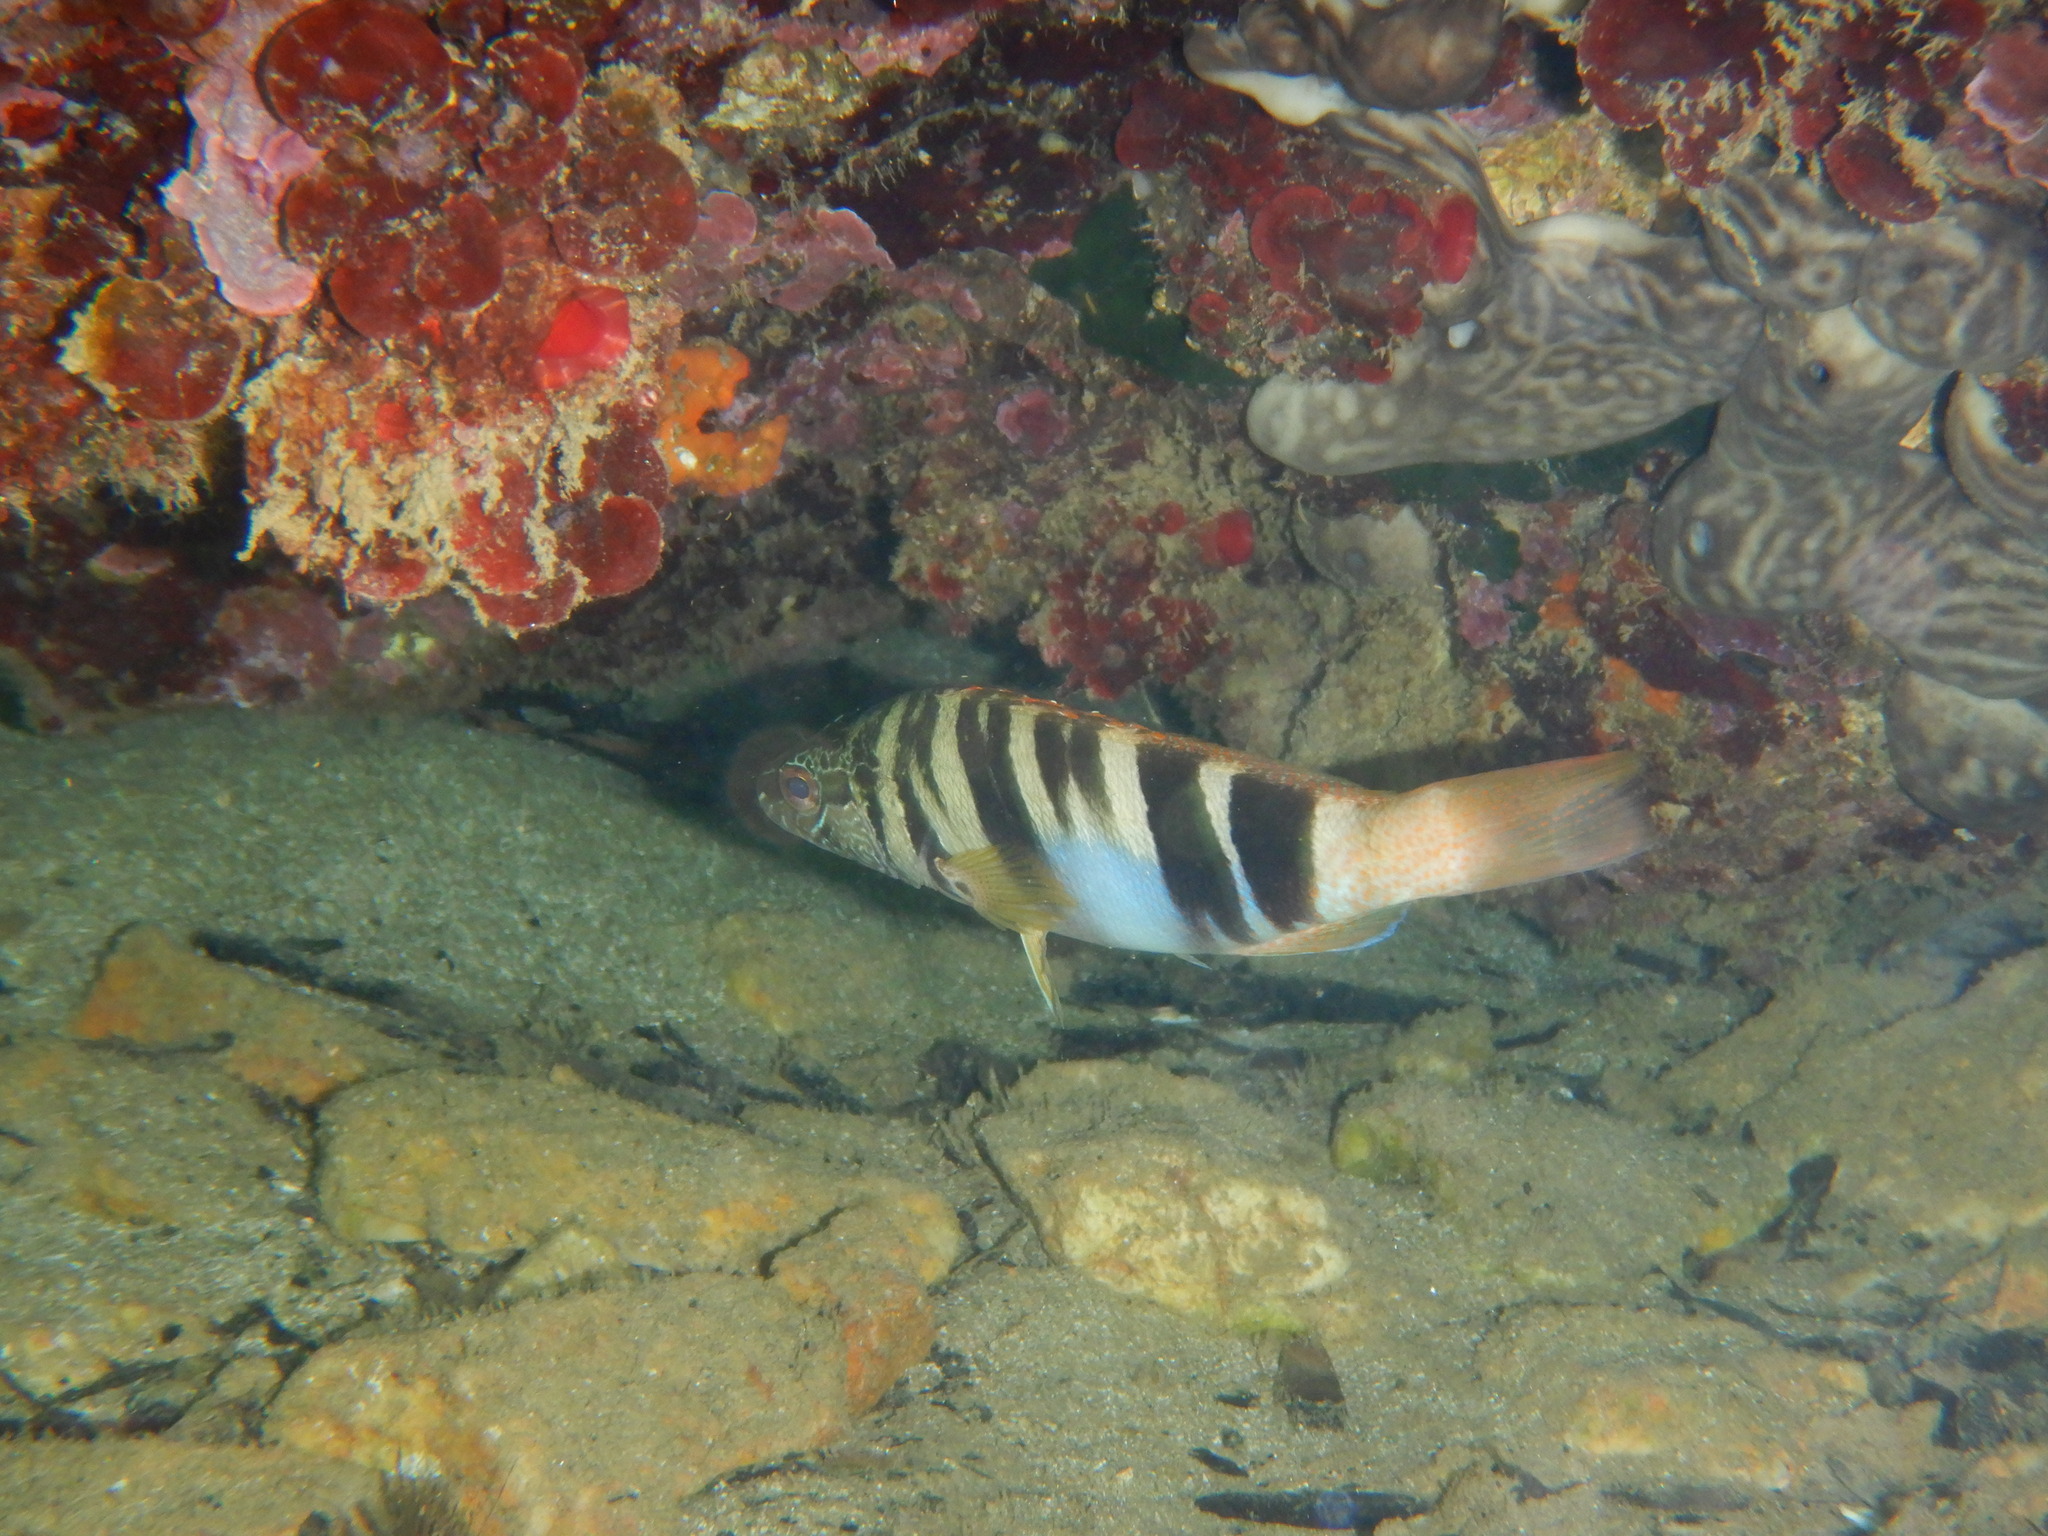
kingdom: Animalia
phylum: Chordata
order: Perciformes
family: Serranidae
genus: Serranus
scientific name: Serranus scriba
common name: Painted comber
